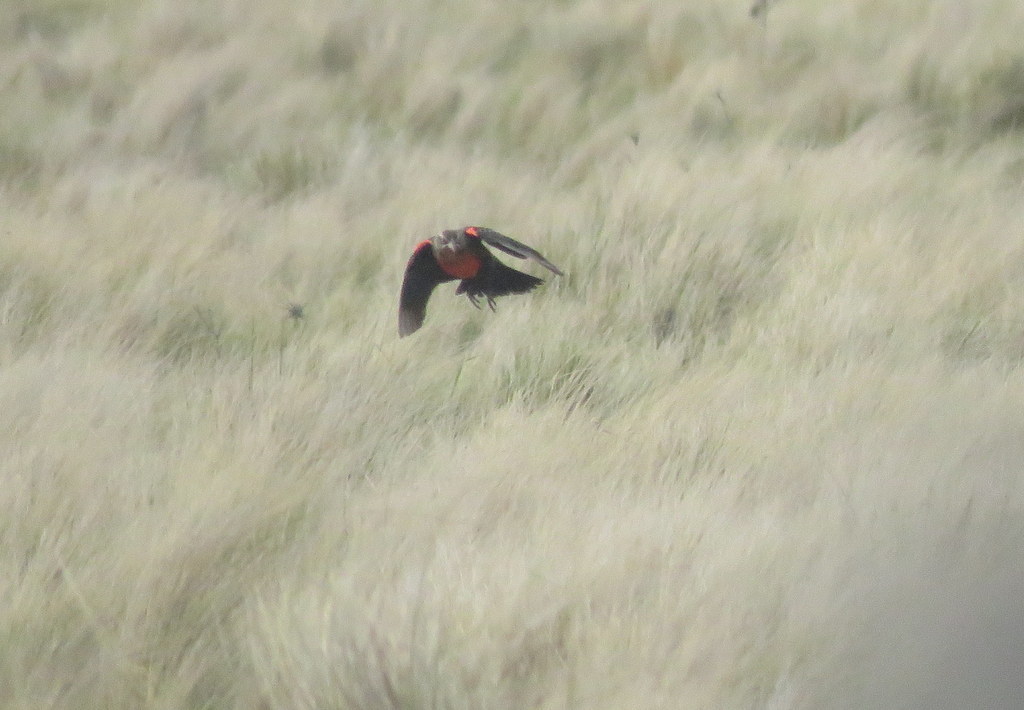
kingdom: Animalia
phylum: Chordata
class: Aves
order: Passeriformes
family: Icteridae
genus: Sturnella
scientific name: Sturnella defilippii
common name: Pampas meadowlark
